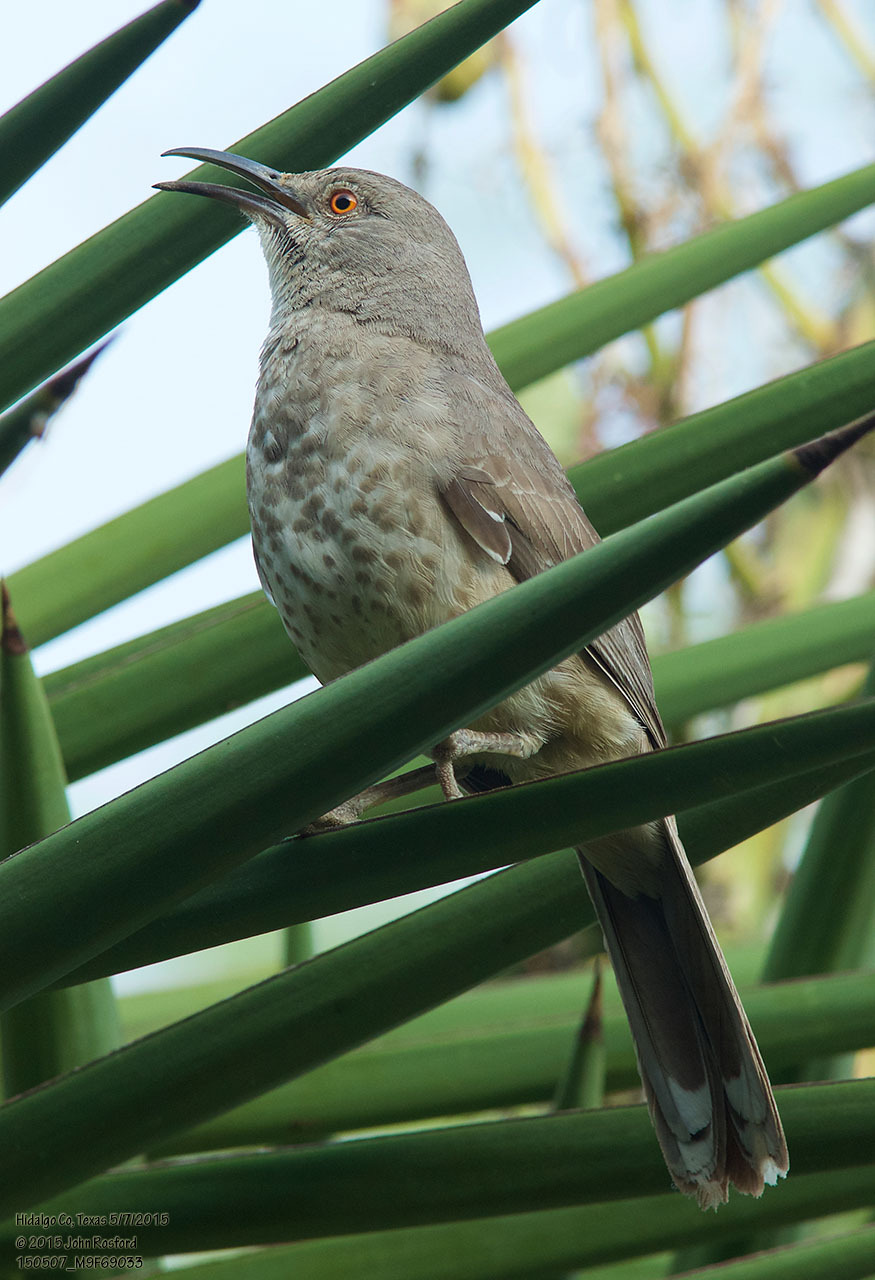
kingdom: Animalia
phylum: Chordata
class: Aves
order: Passeriformes
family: Mimidae
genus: Toxostoma
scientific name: Toxostoma curvirostre
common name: Curve-billed thrasher
